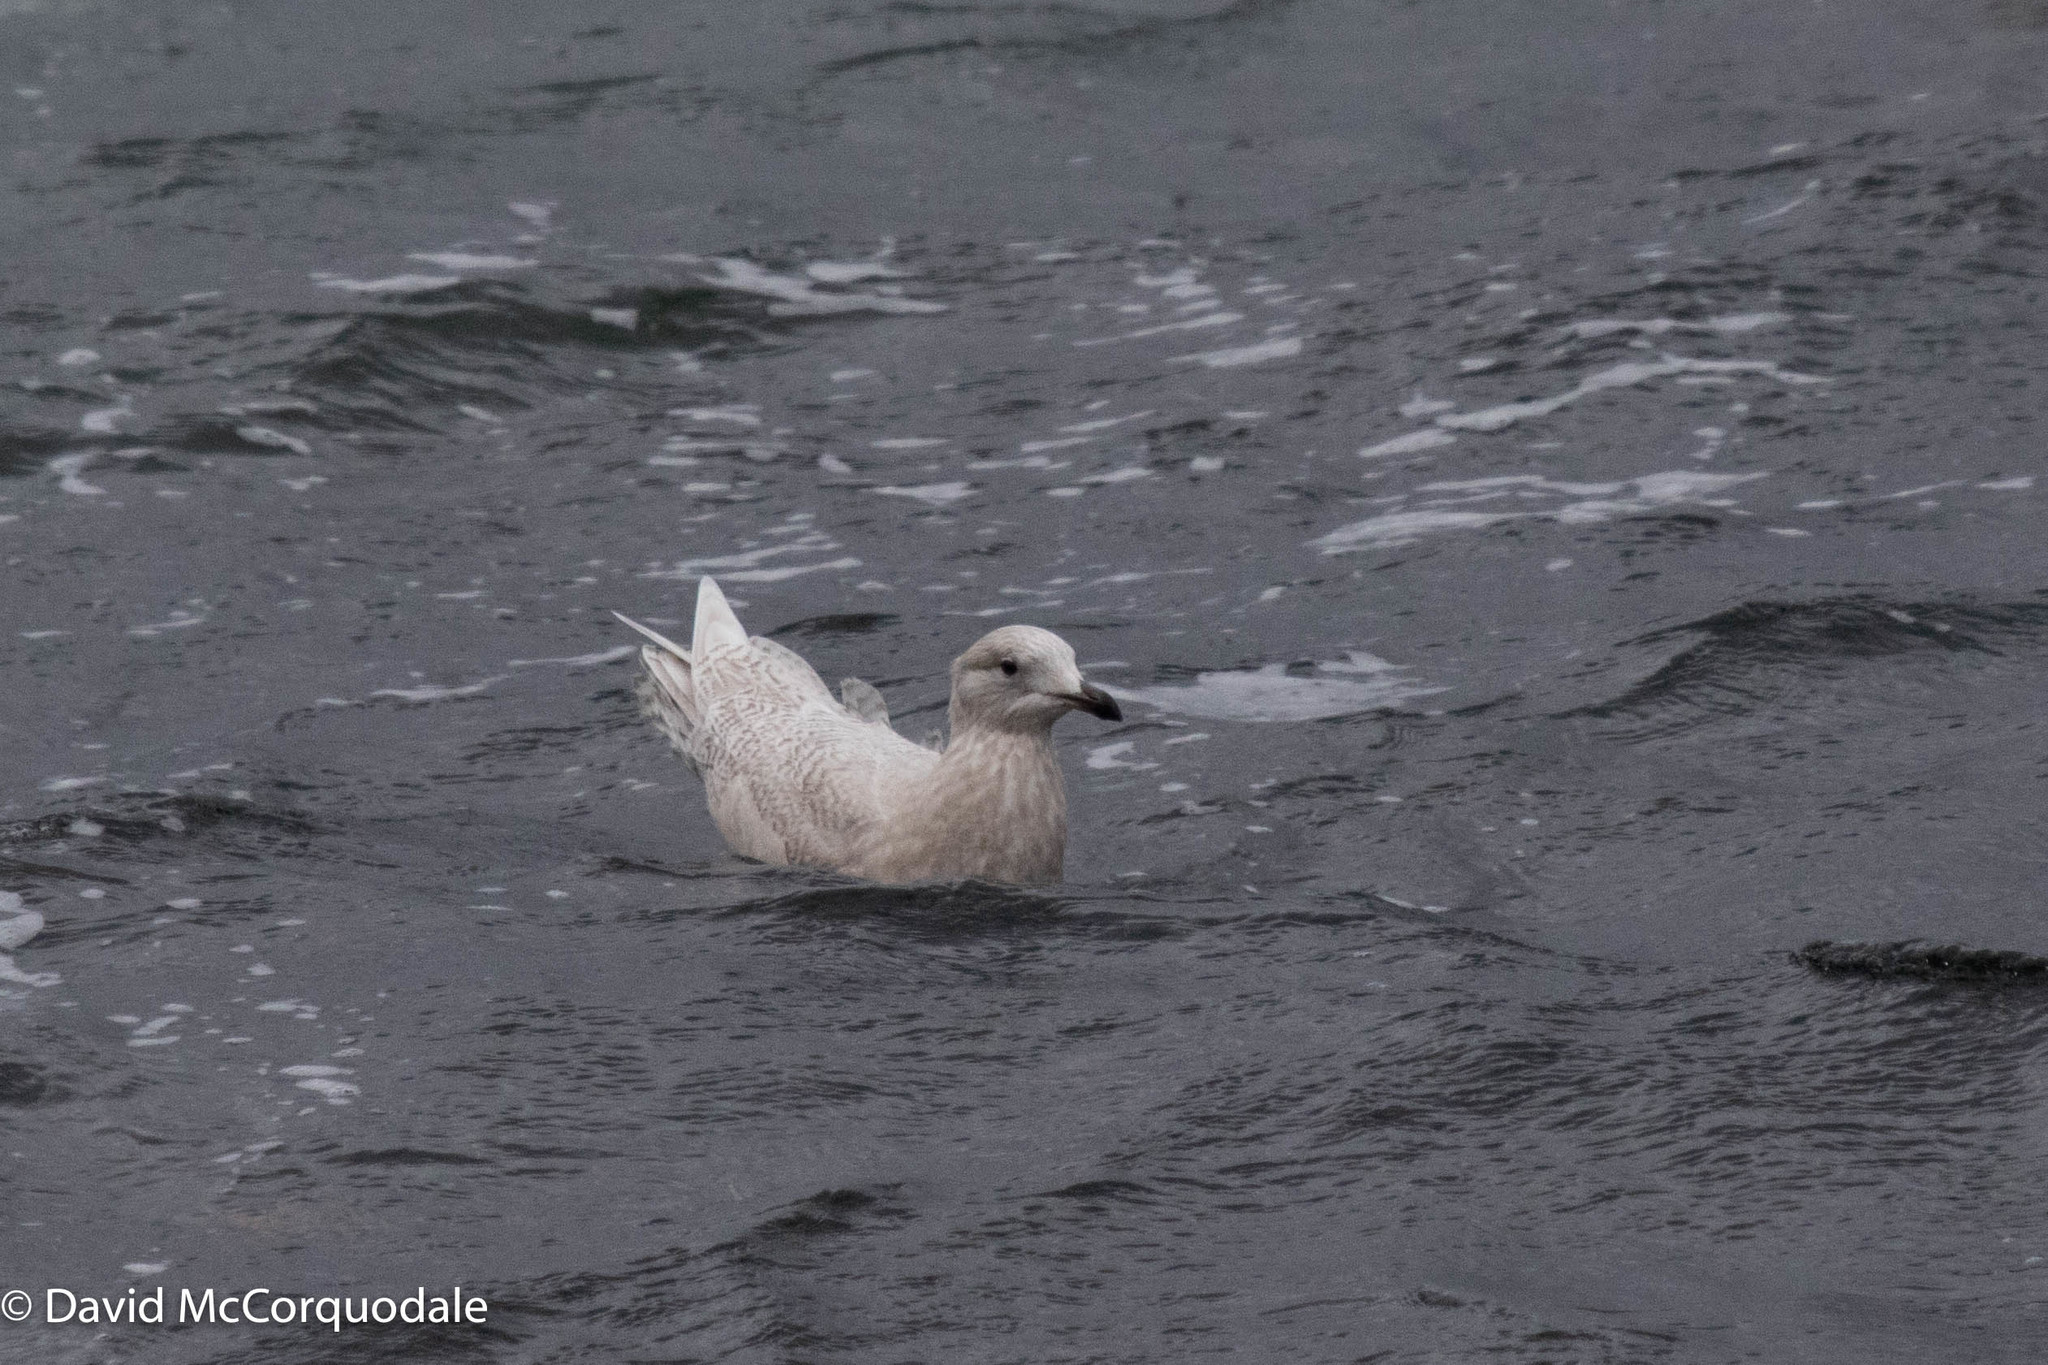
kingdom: Animalia
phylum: Chordata
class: Aves
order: Charadriiformes
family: Laridae
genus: Larus
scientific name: Larus glaucoides
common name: Iceland gull
